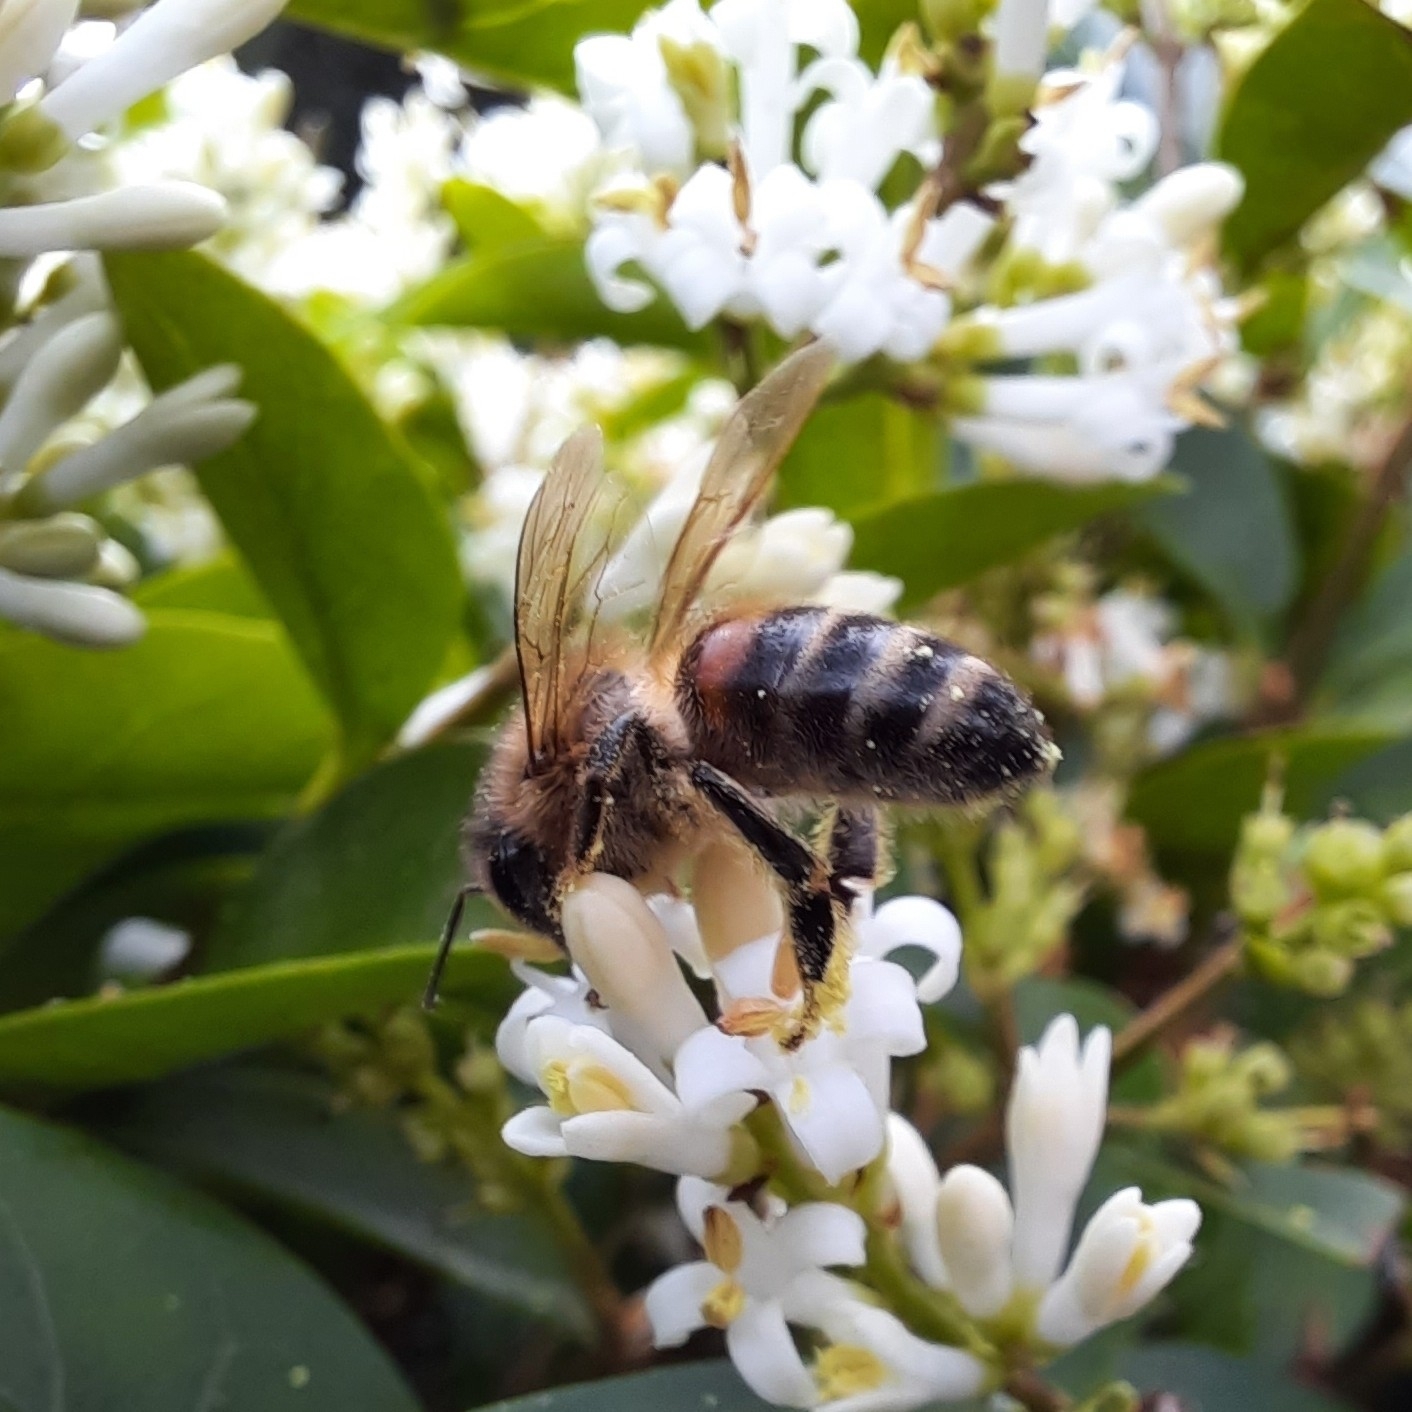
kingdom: Animalia
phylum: Arthropoda
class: Insecta
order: Hymenoptera
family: Apidae
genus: Apis
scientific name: Apis mellifera
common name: Honey bee
